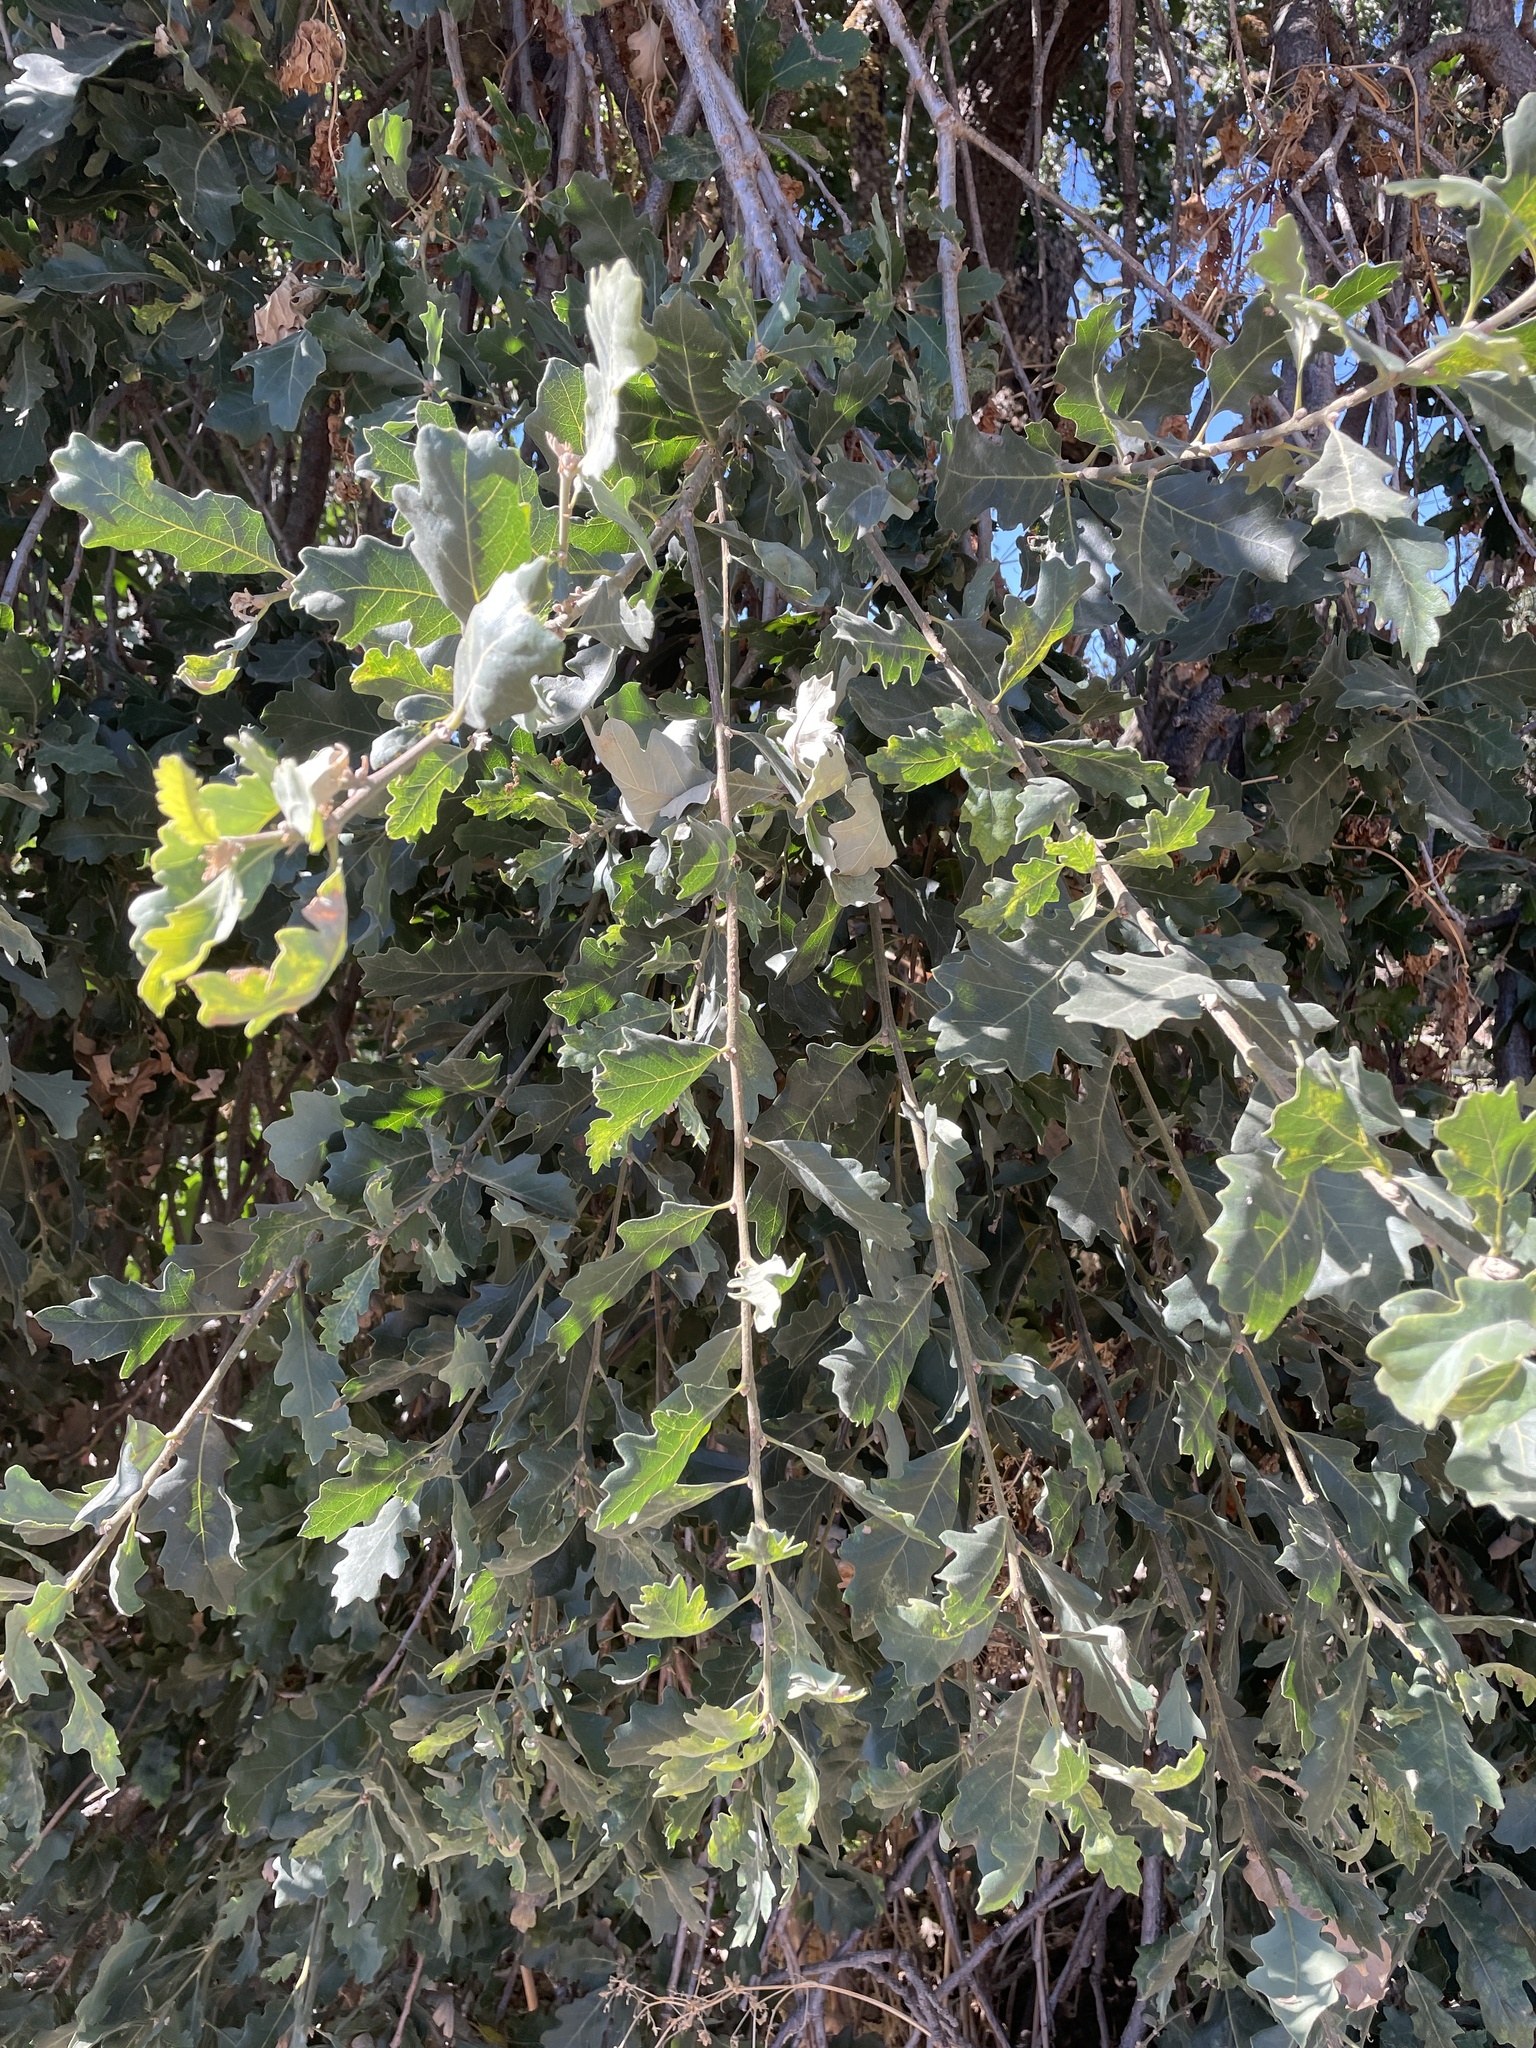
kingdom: Plantae
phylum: Tracheophyta
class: Magnoliopsida
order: Fagales
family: Fagaceae
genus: Quercus
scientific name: Quercus jolonensis
